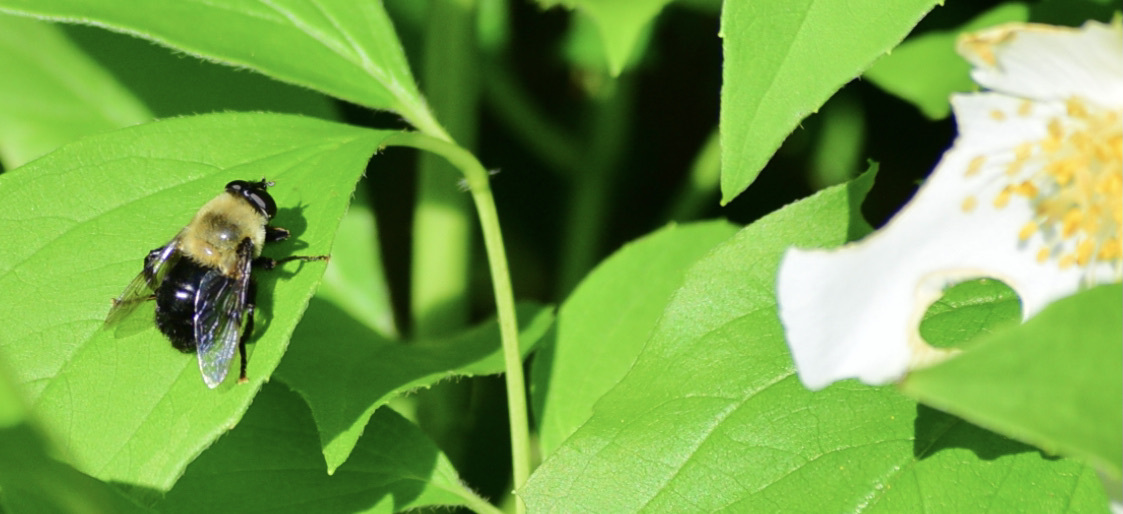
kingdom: Animalia
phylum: Arthropoda
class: Insecta
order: Diptera
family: Syrphidae
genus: Imatisma
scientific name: Imatisma bautias
